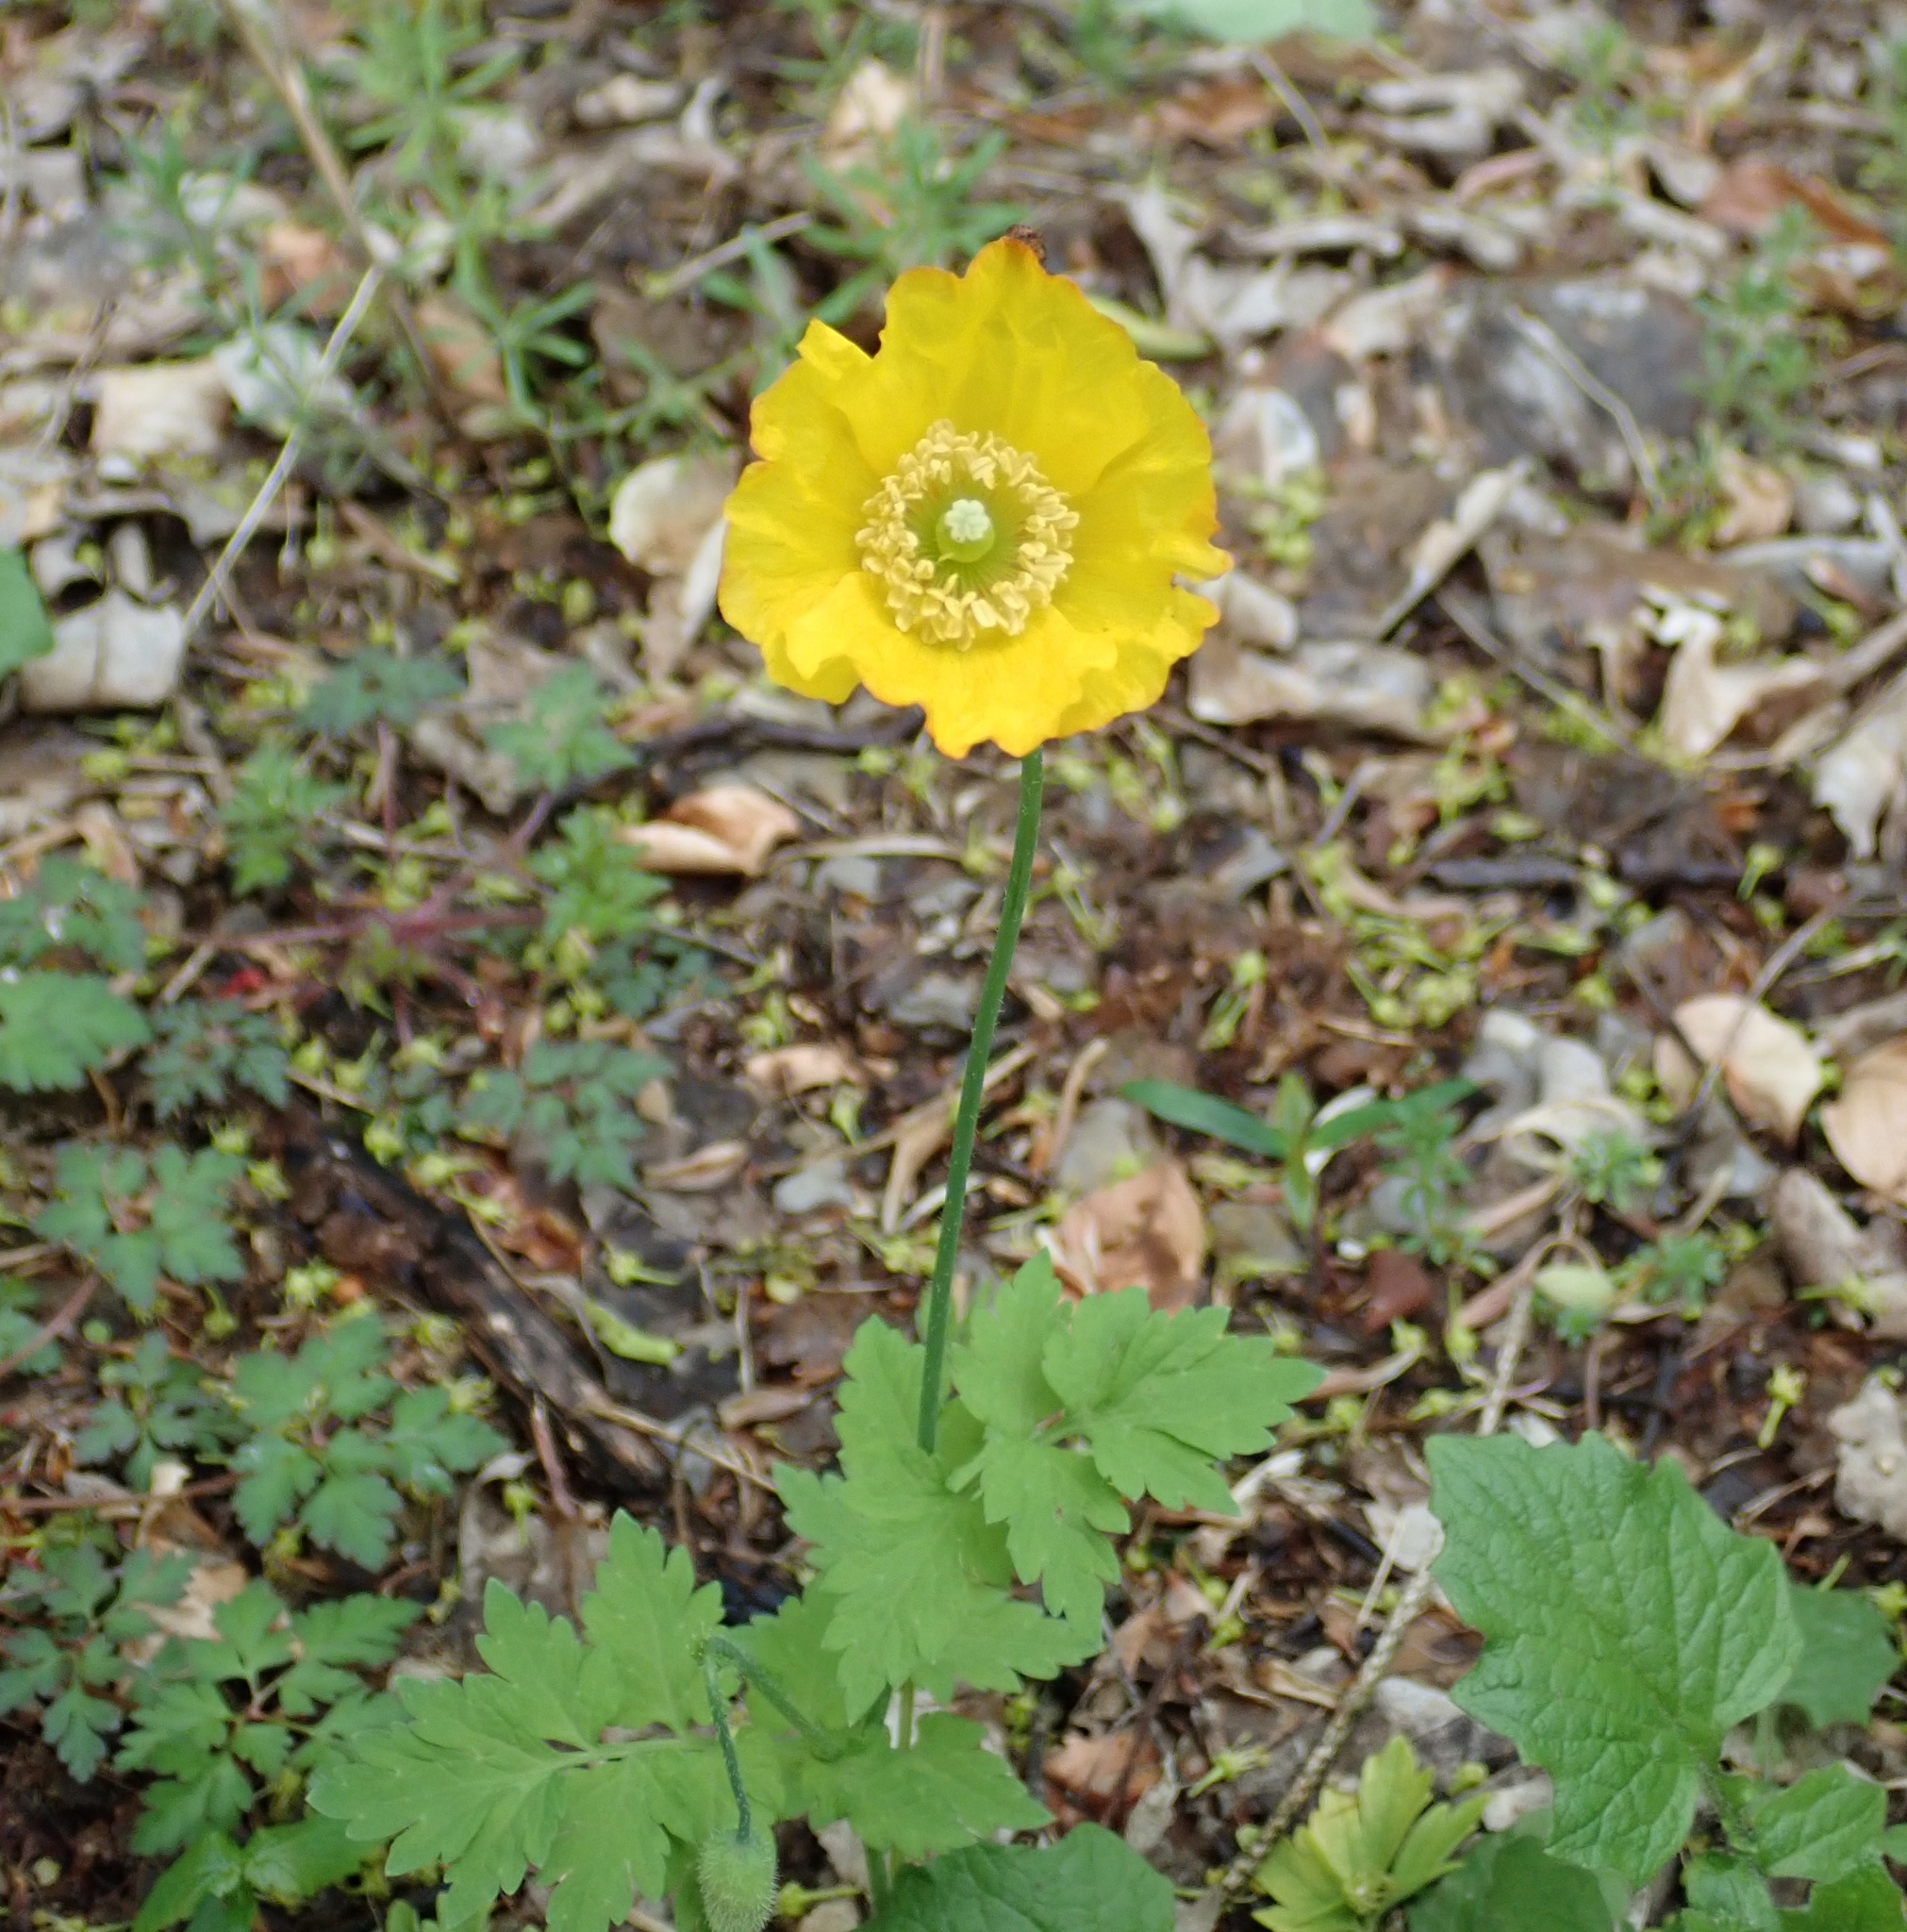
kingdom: Plantae
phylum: Tracheophyta
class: Magnoliopsida
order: Ranunculales
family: Papaveraceae
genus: Papaver
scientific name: Papaver cambricum
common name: Poppy
